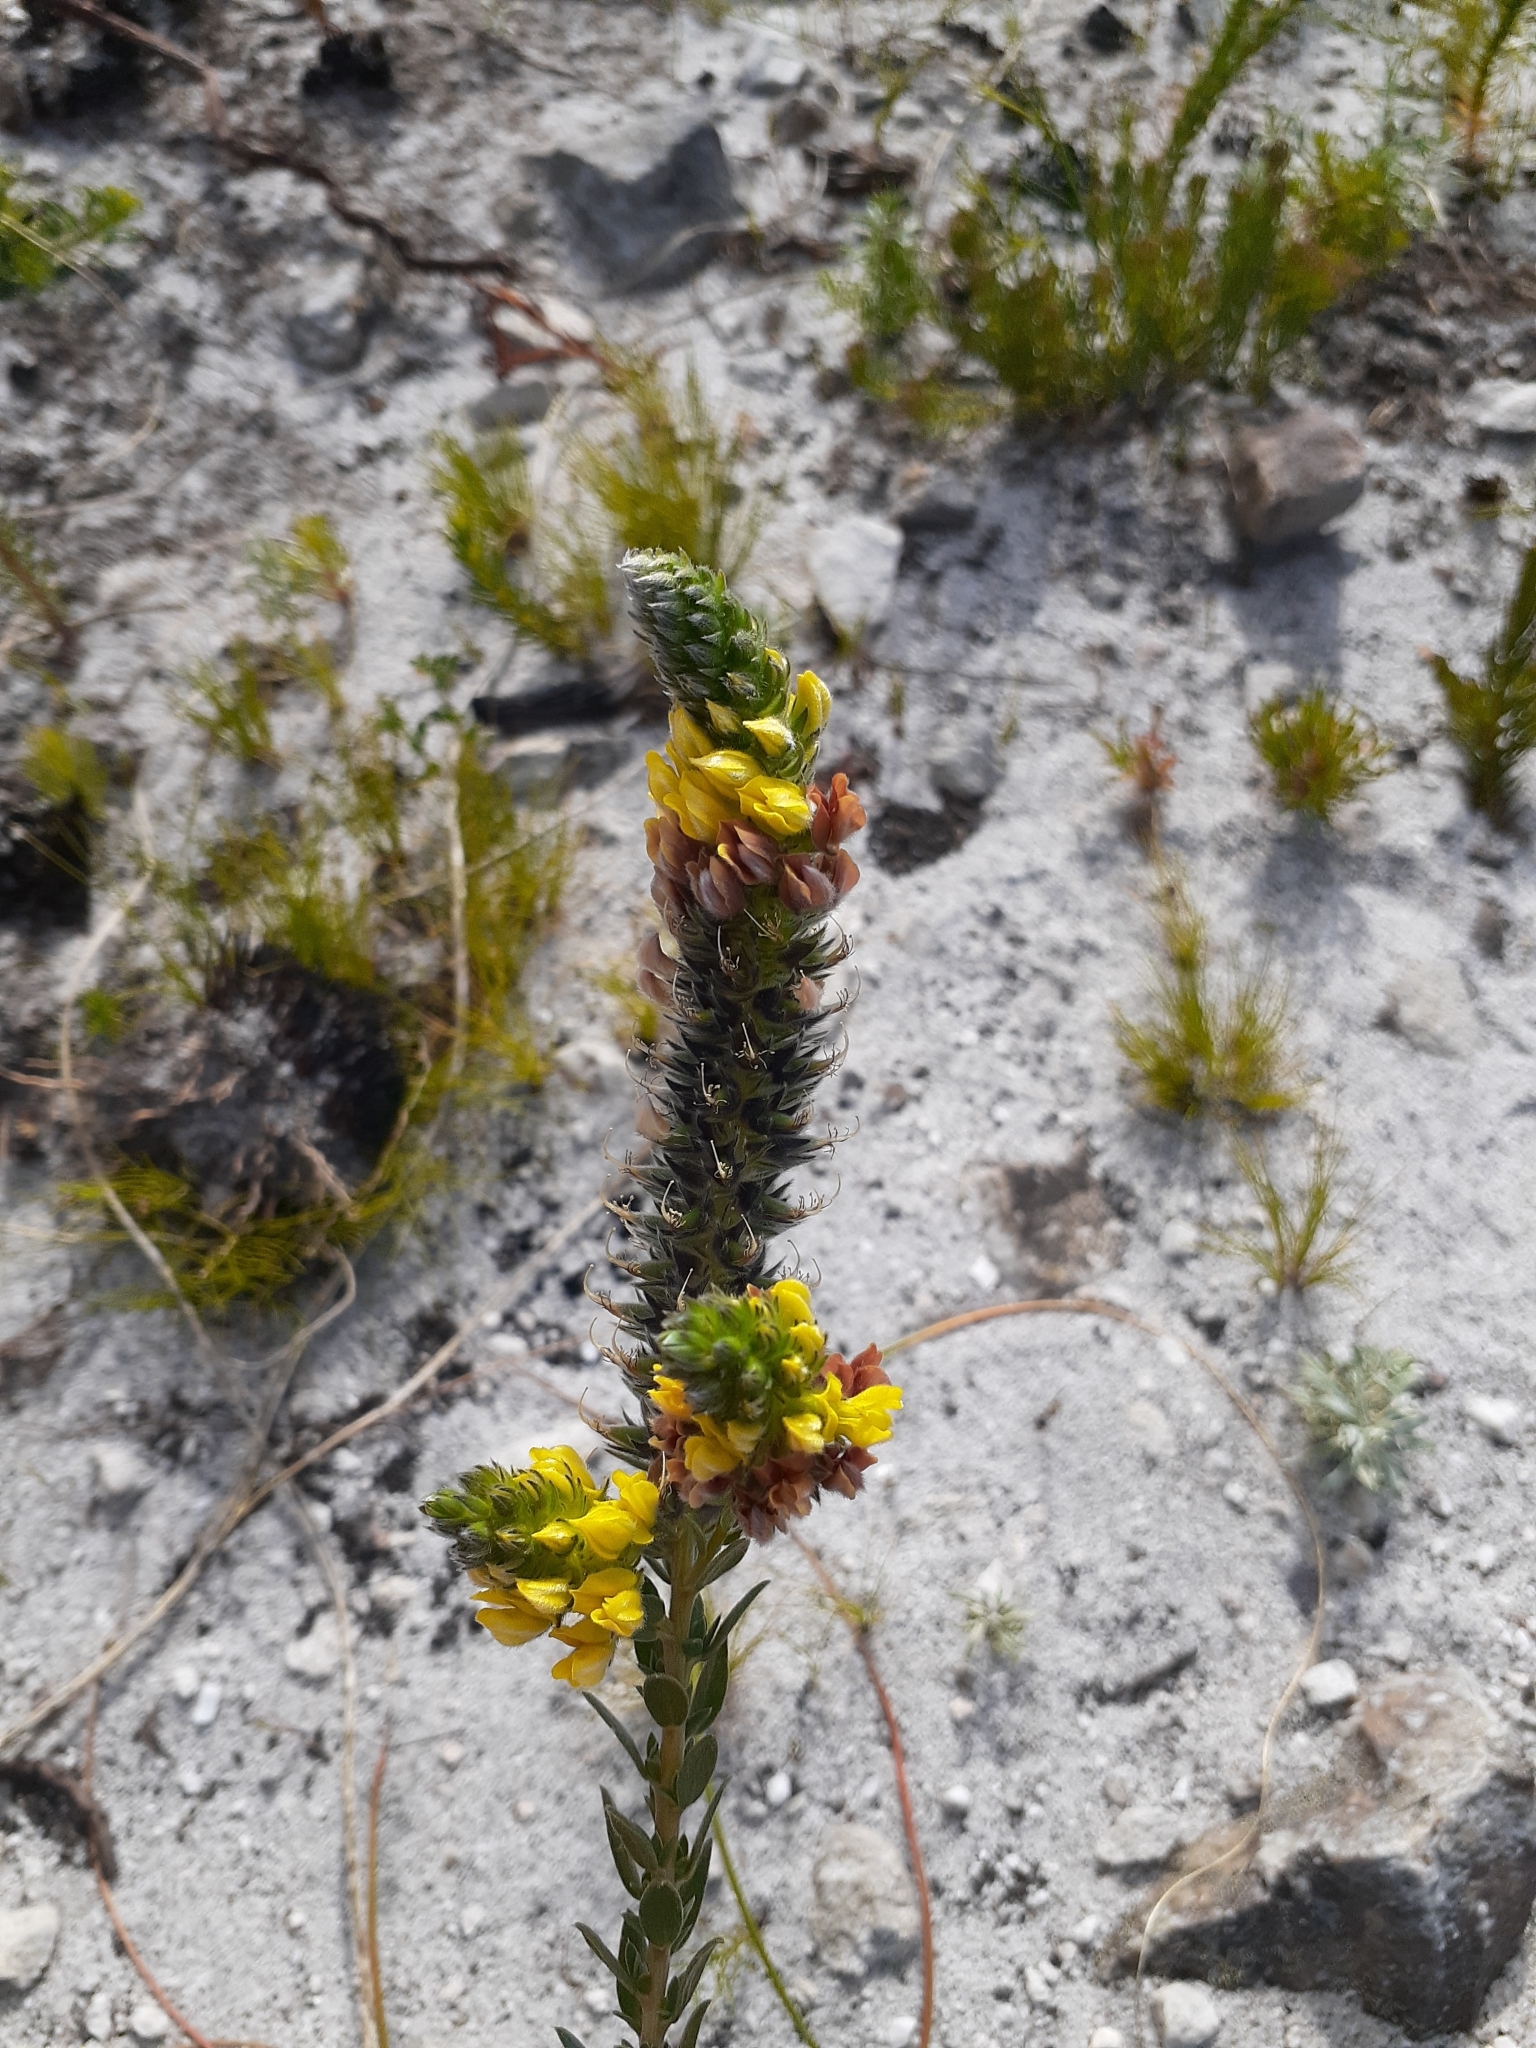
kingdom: Plantae
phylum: Tracheophyta
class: Magnoliopsida
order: Fabales
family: Fabaceae
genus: Aspalathus
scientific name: Aspalathus sericea
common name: Silky pea
